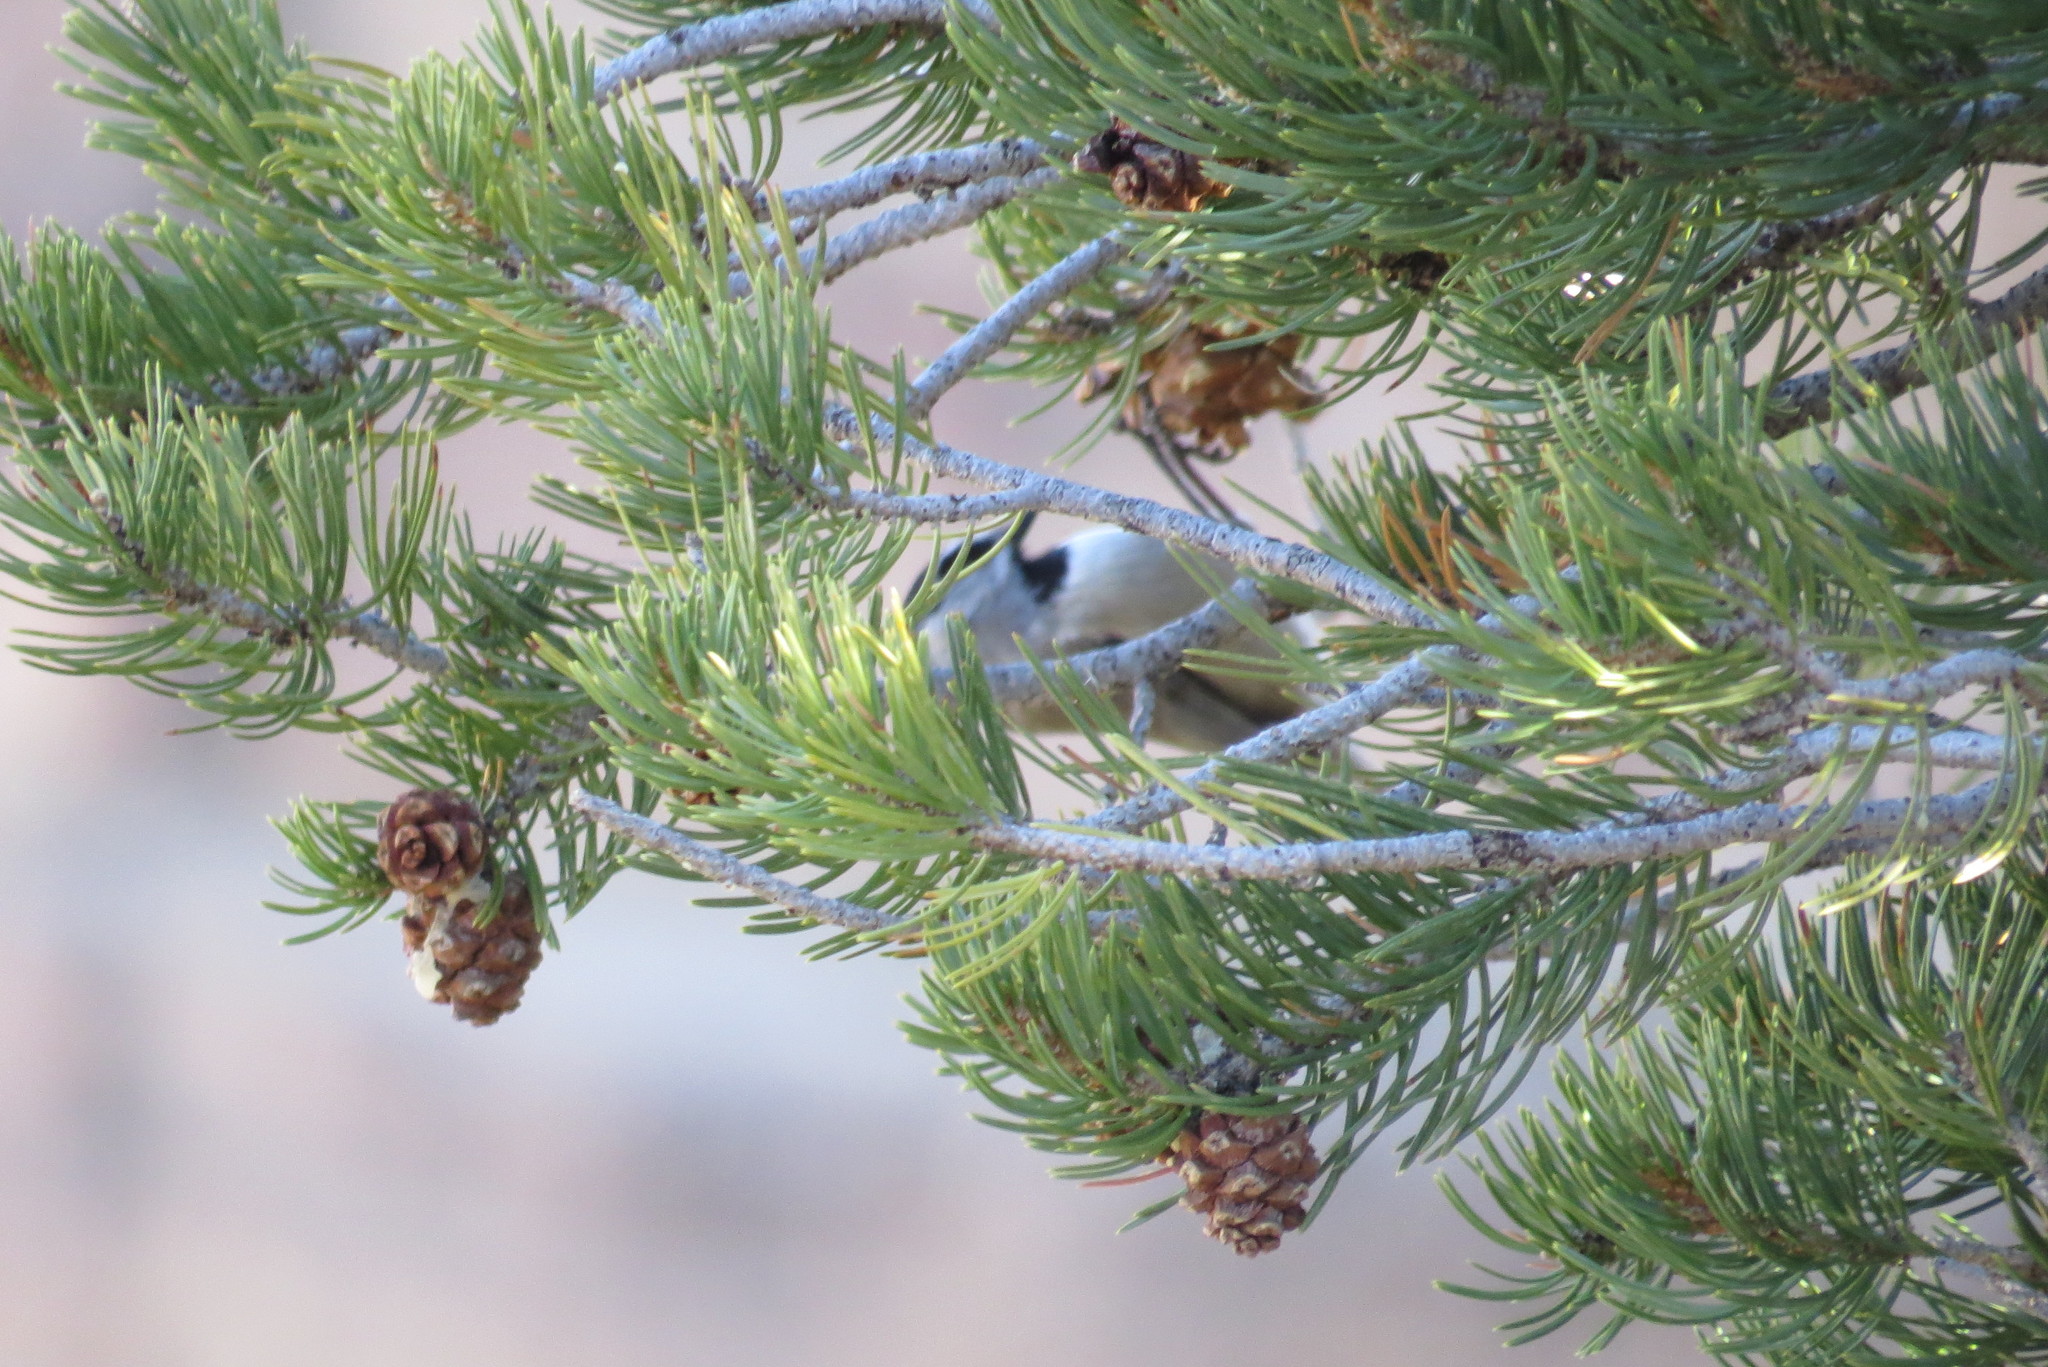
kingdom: Animalia
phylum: Chordata
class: Aves
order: Passeriformes
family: Paridae
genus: Poecile
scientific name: Poecile gambeli
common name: Mountain chickadee
